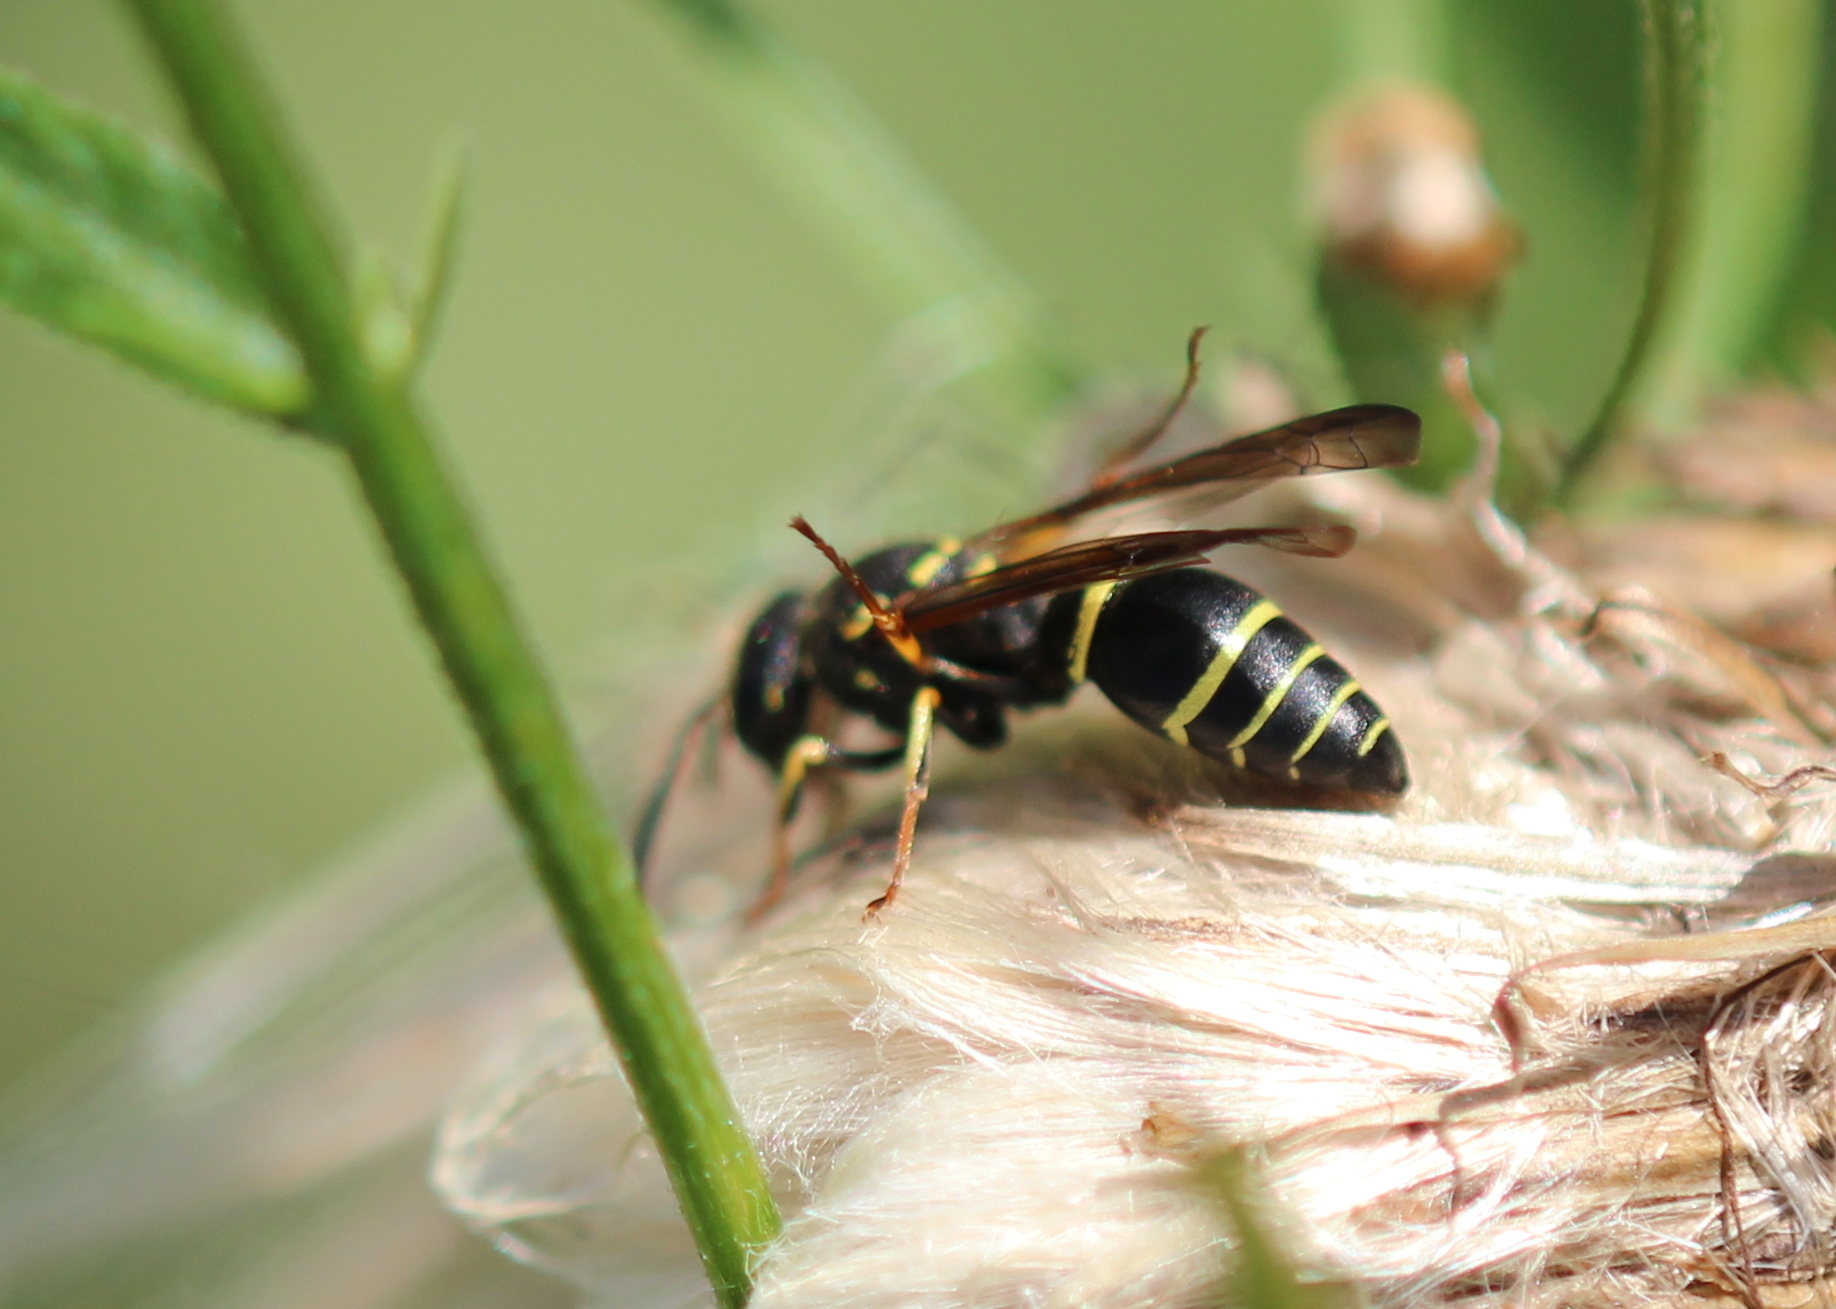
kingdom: Animalia
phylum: Arthropoda
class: Insecta
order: Hymenoptera
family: Vespidae
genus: Ancistrocerus
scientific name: Ancistrocerus adiabatus
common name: Bramble mason wasp
